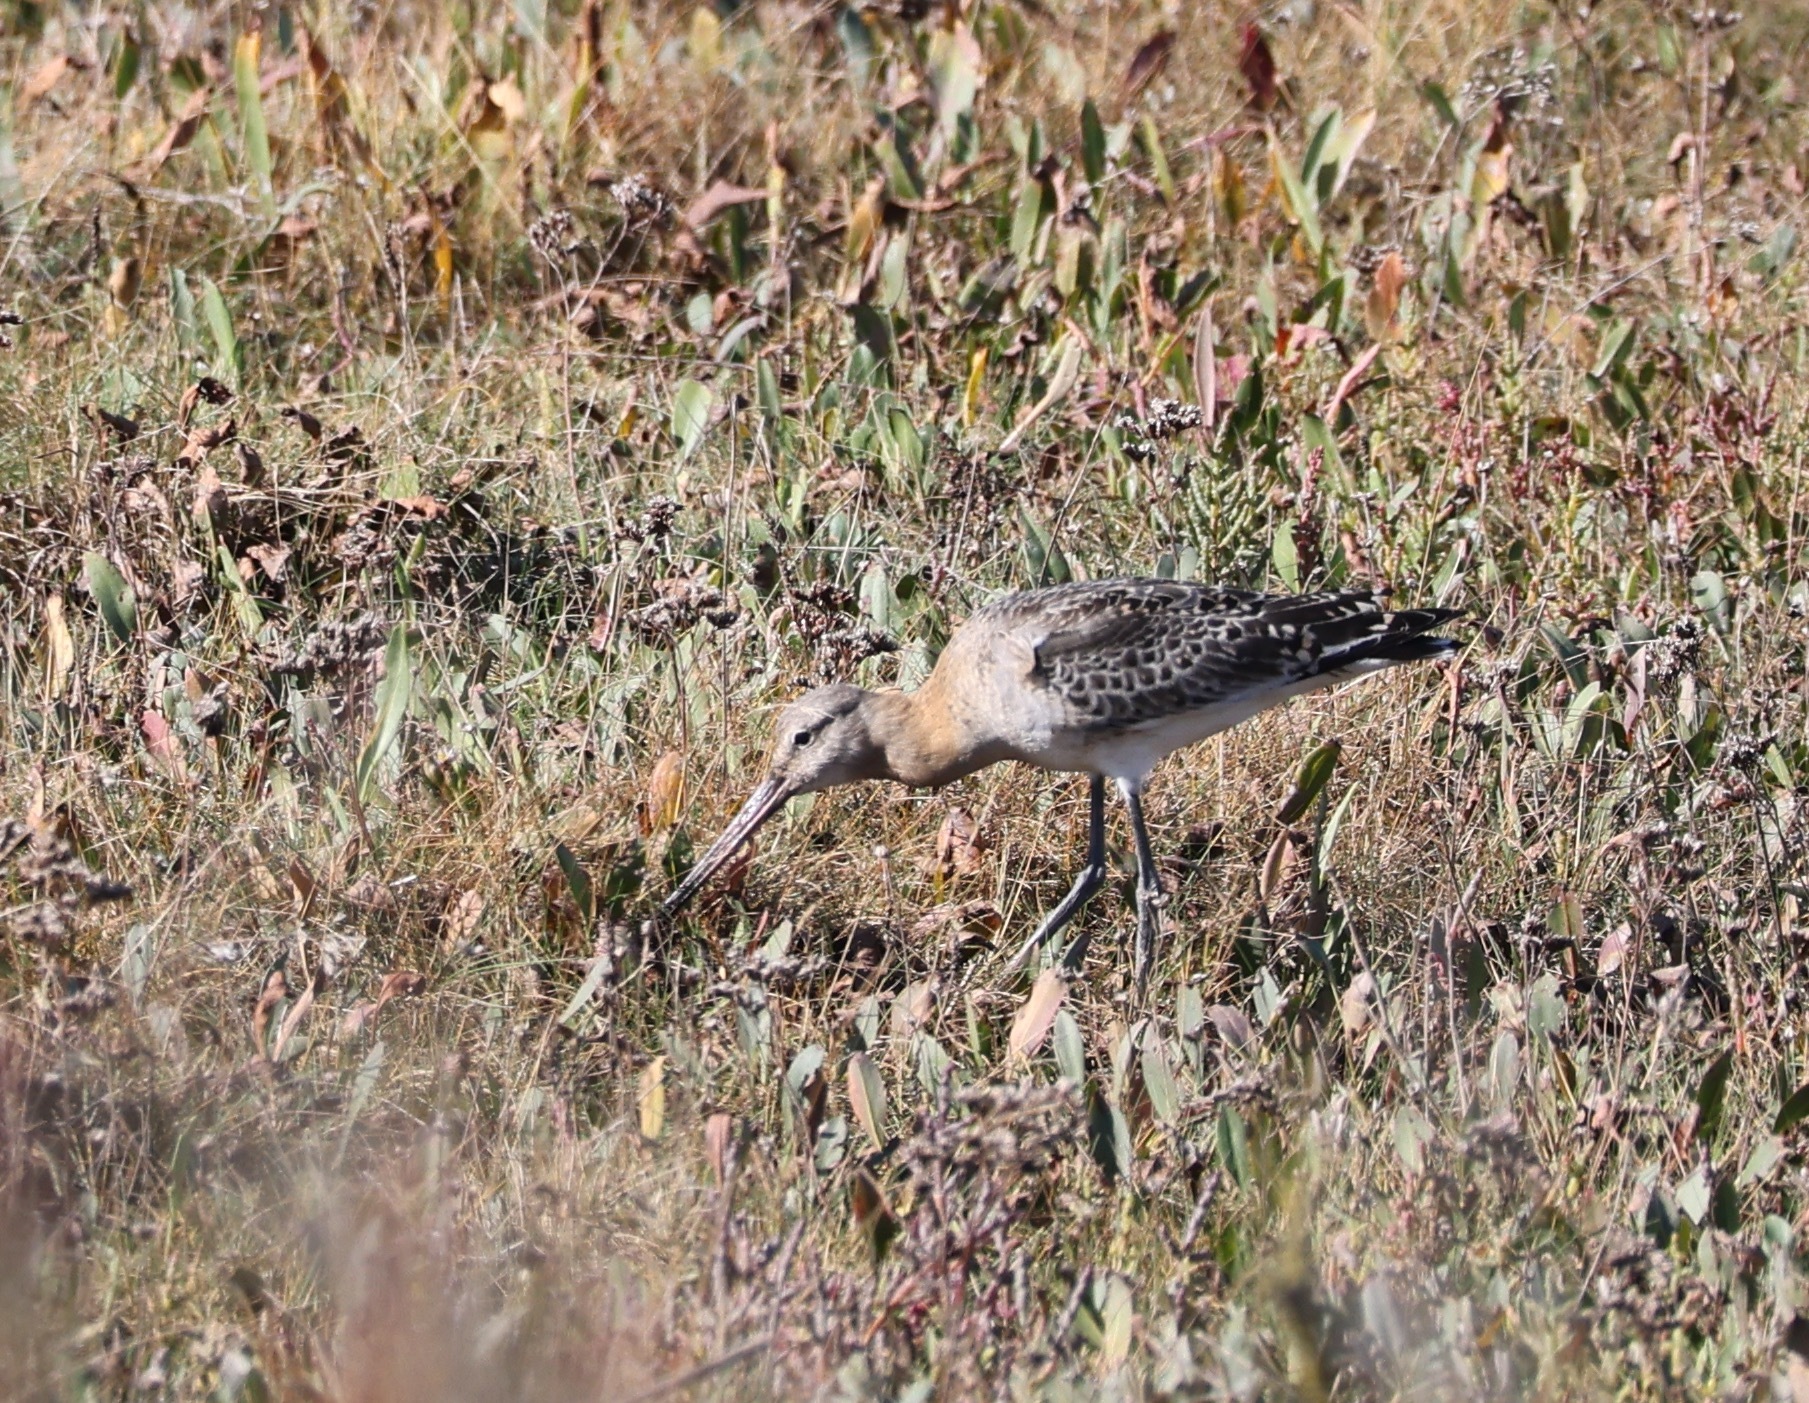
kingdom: Animalia
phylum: Chordata
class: Aves
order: Charadriiformes
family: Scolopacidae
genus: Limosa
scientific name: Limosa limosa
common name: Black-tailed godwit
